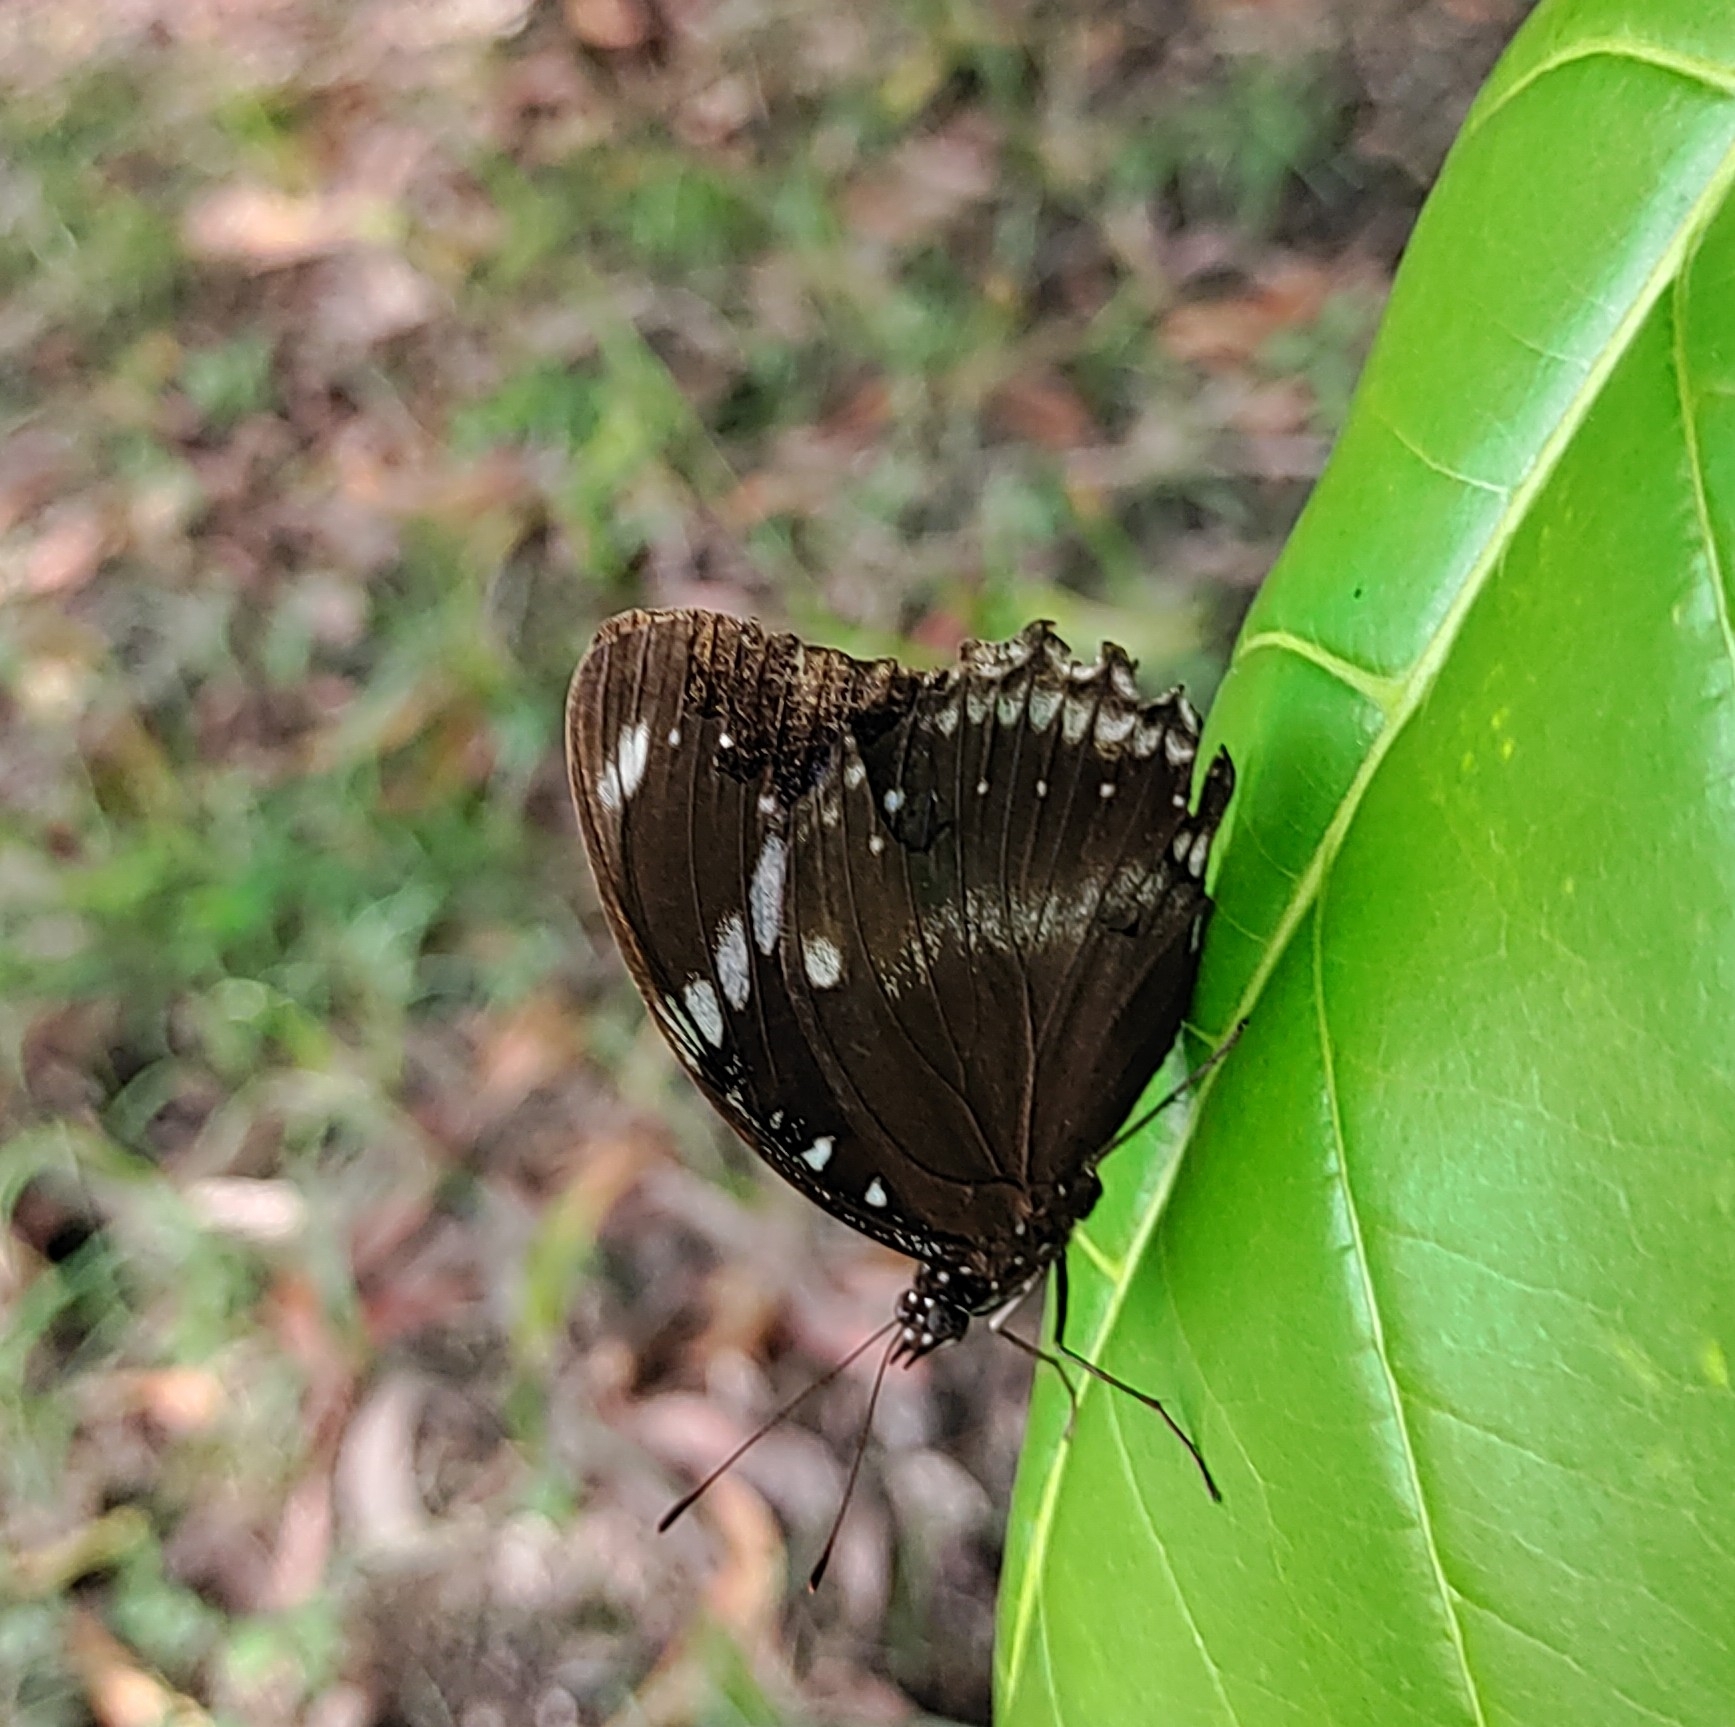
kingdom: Animalia
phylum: Arthropoda
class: Insecta
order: Lepidoptera
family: Nymphalidae
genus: Hypolimnas
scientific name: Hypolimnas bolina
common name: Great eggfly
